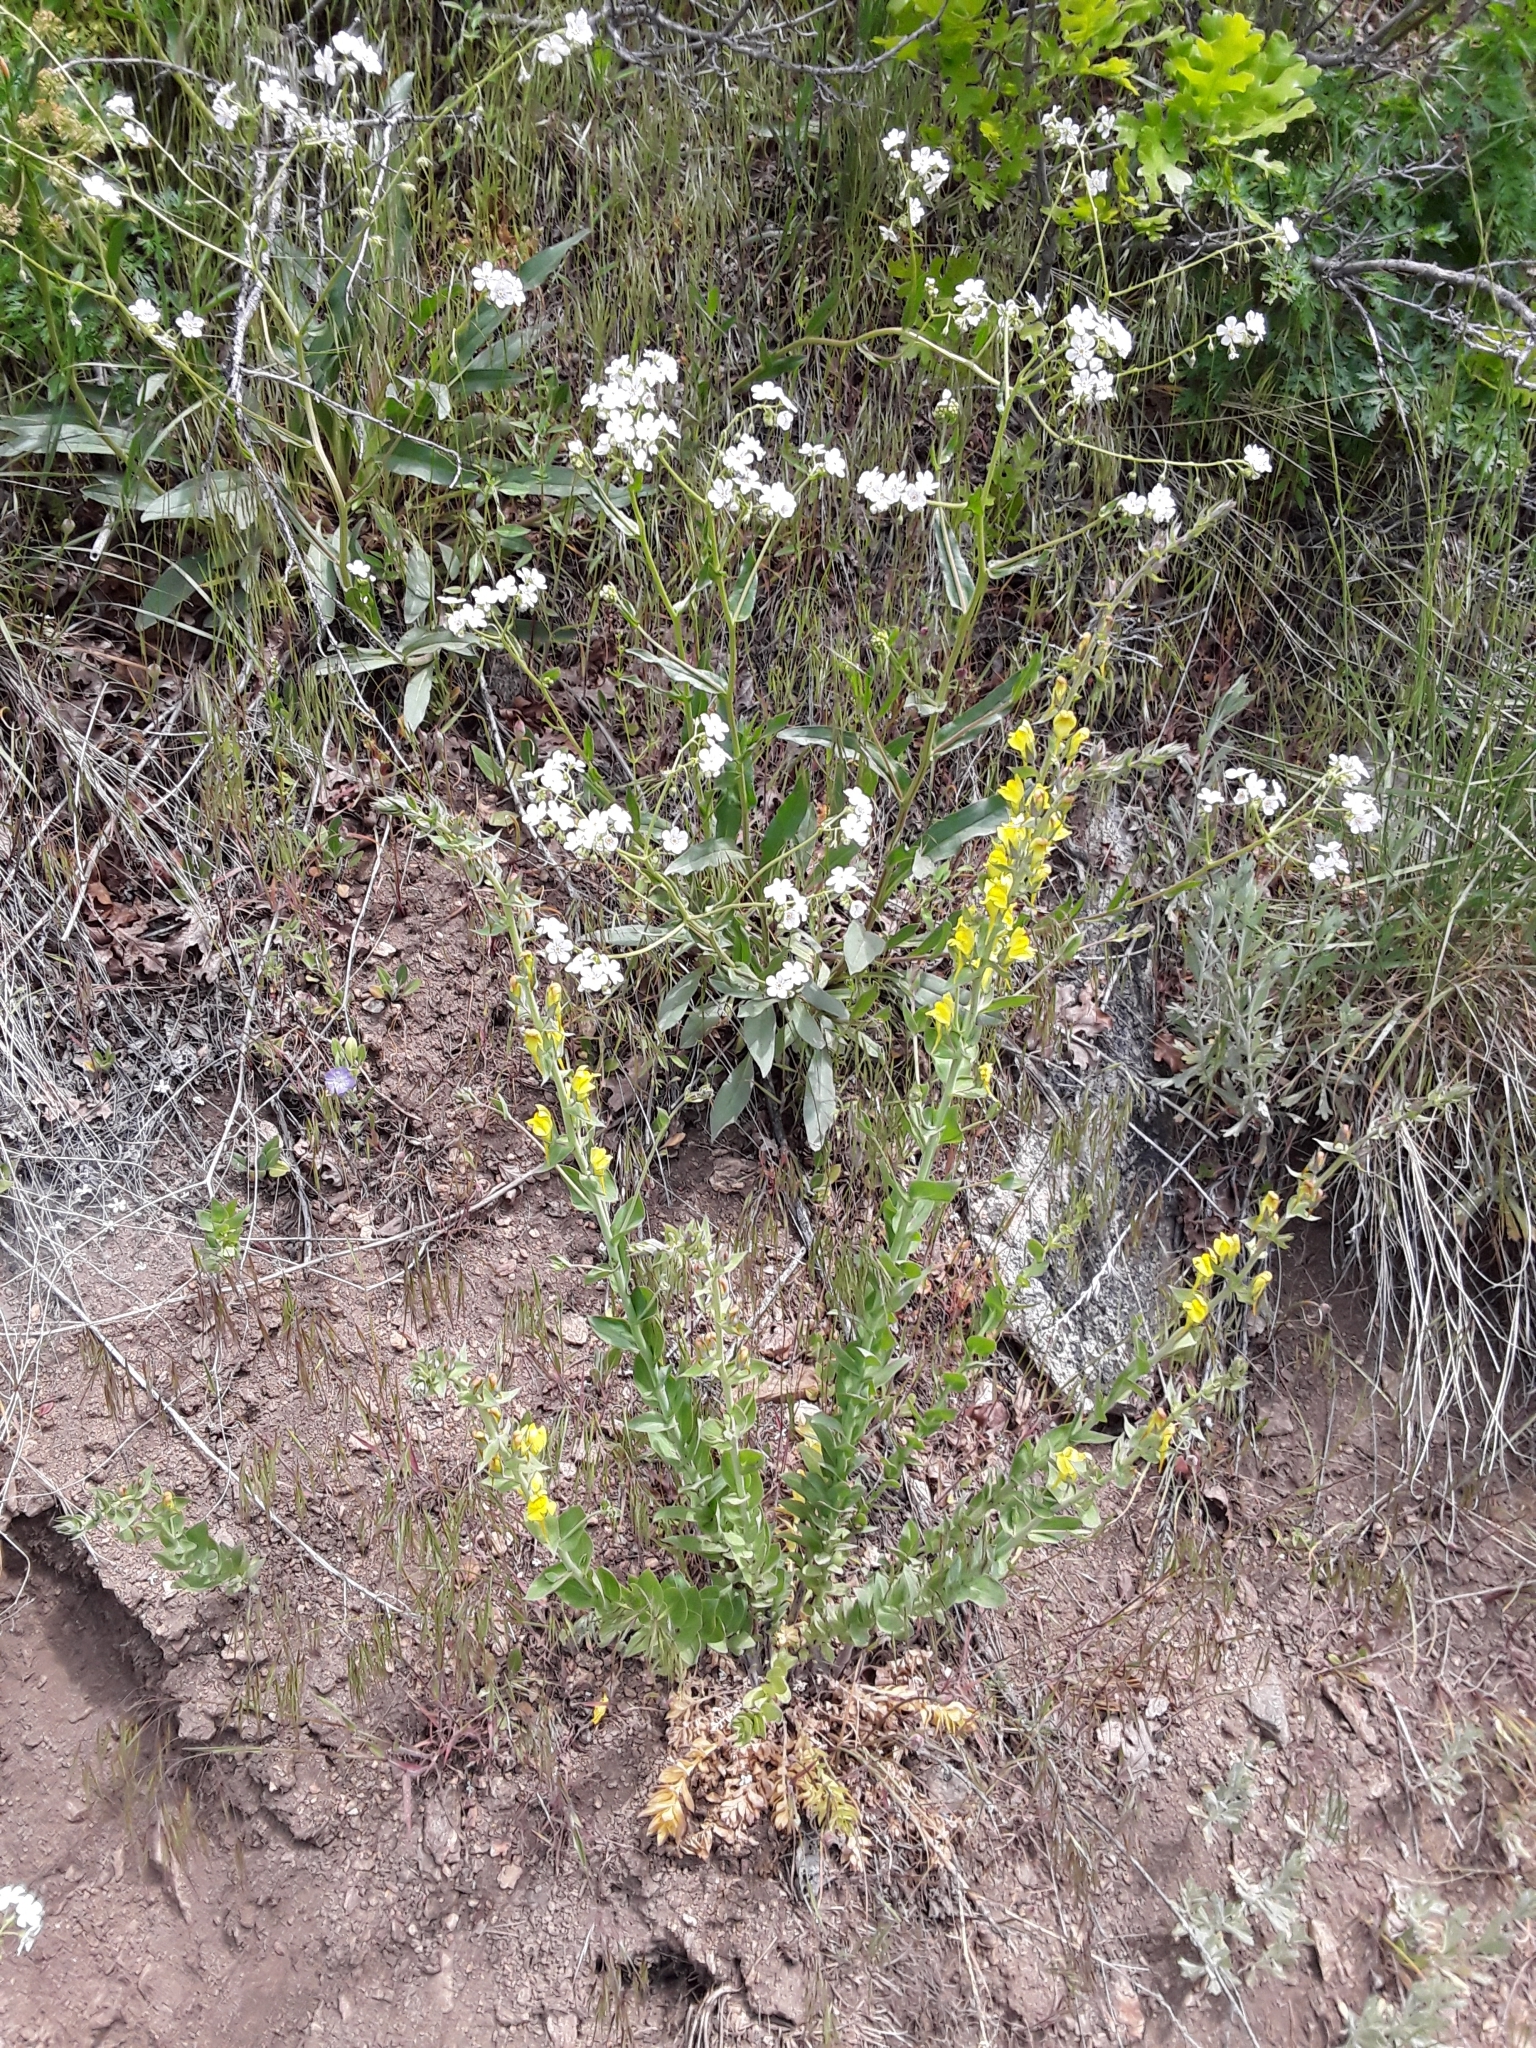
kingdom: Plantae
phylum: Tracheophyta
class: Magnoliopsida
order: Lamiales
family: Plantaginaceae
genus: Linaria
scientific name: Linaria dalmatica
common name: Dalmatian toadflax
